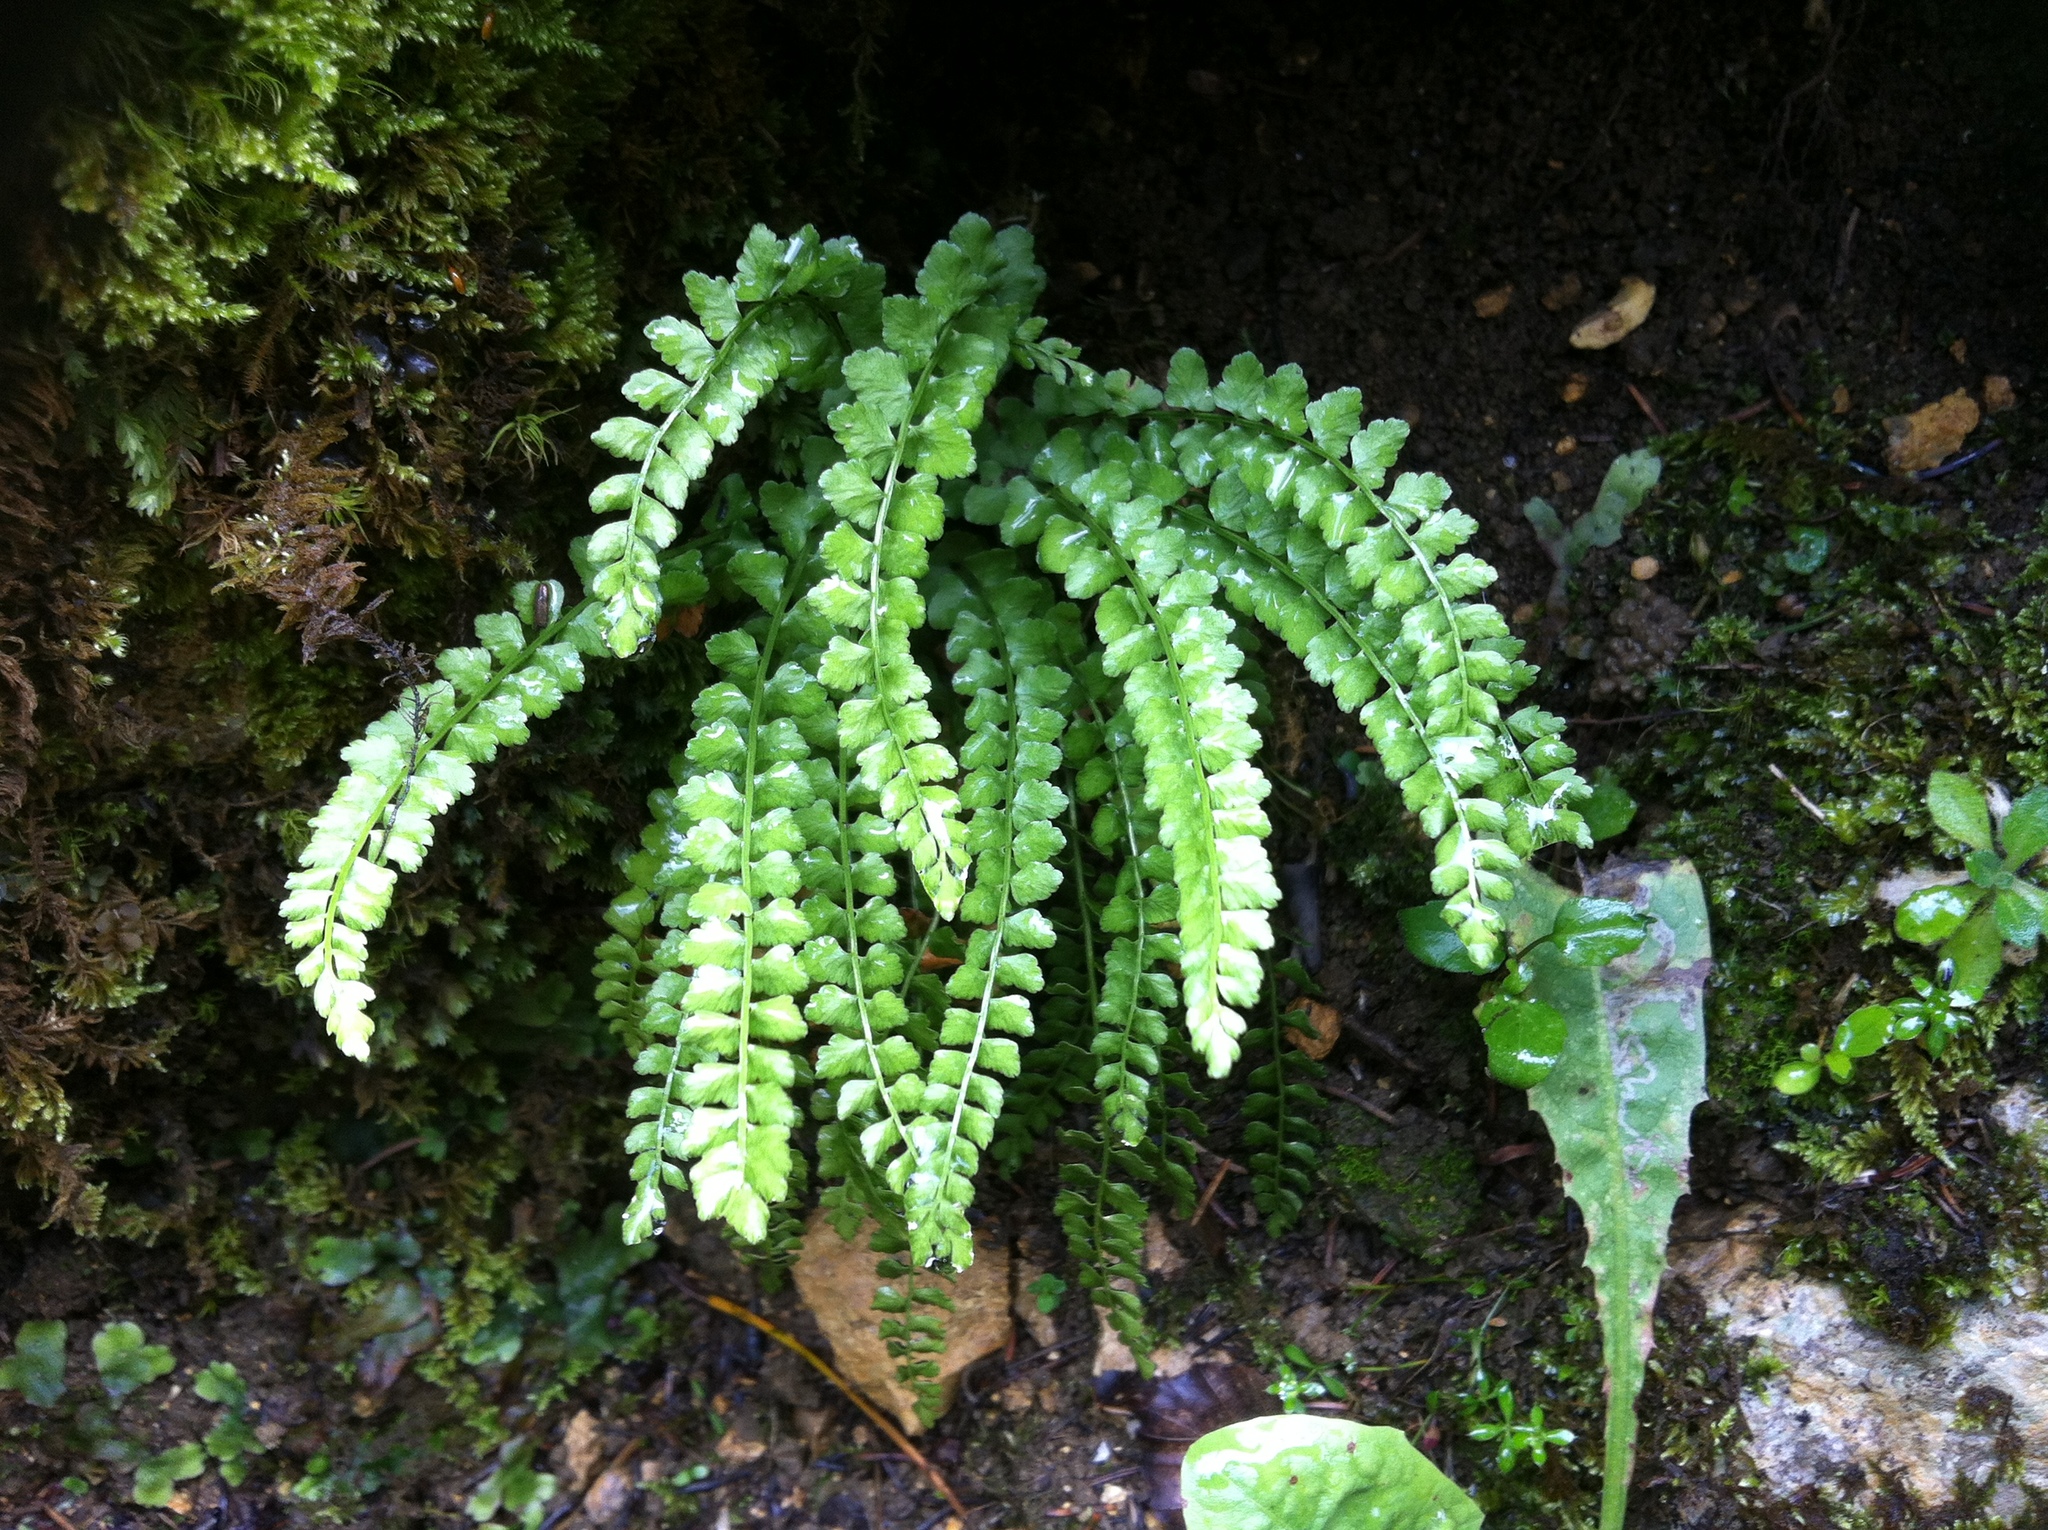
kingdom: Plantae
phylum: Tracheophyta
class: Polypodiopsida
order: Polypodiales
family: Aspleniaceae
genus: Asplenium
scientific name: Asplenium viride
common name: Green spleenwort
